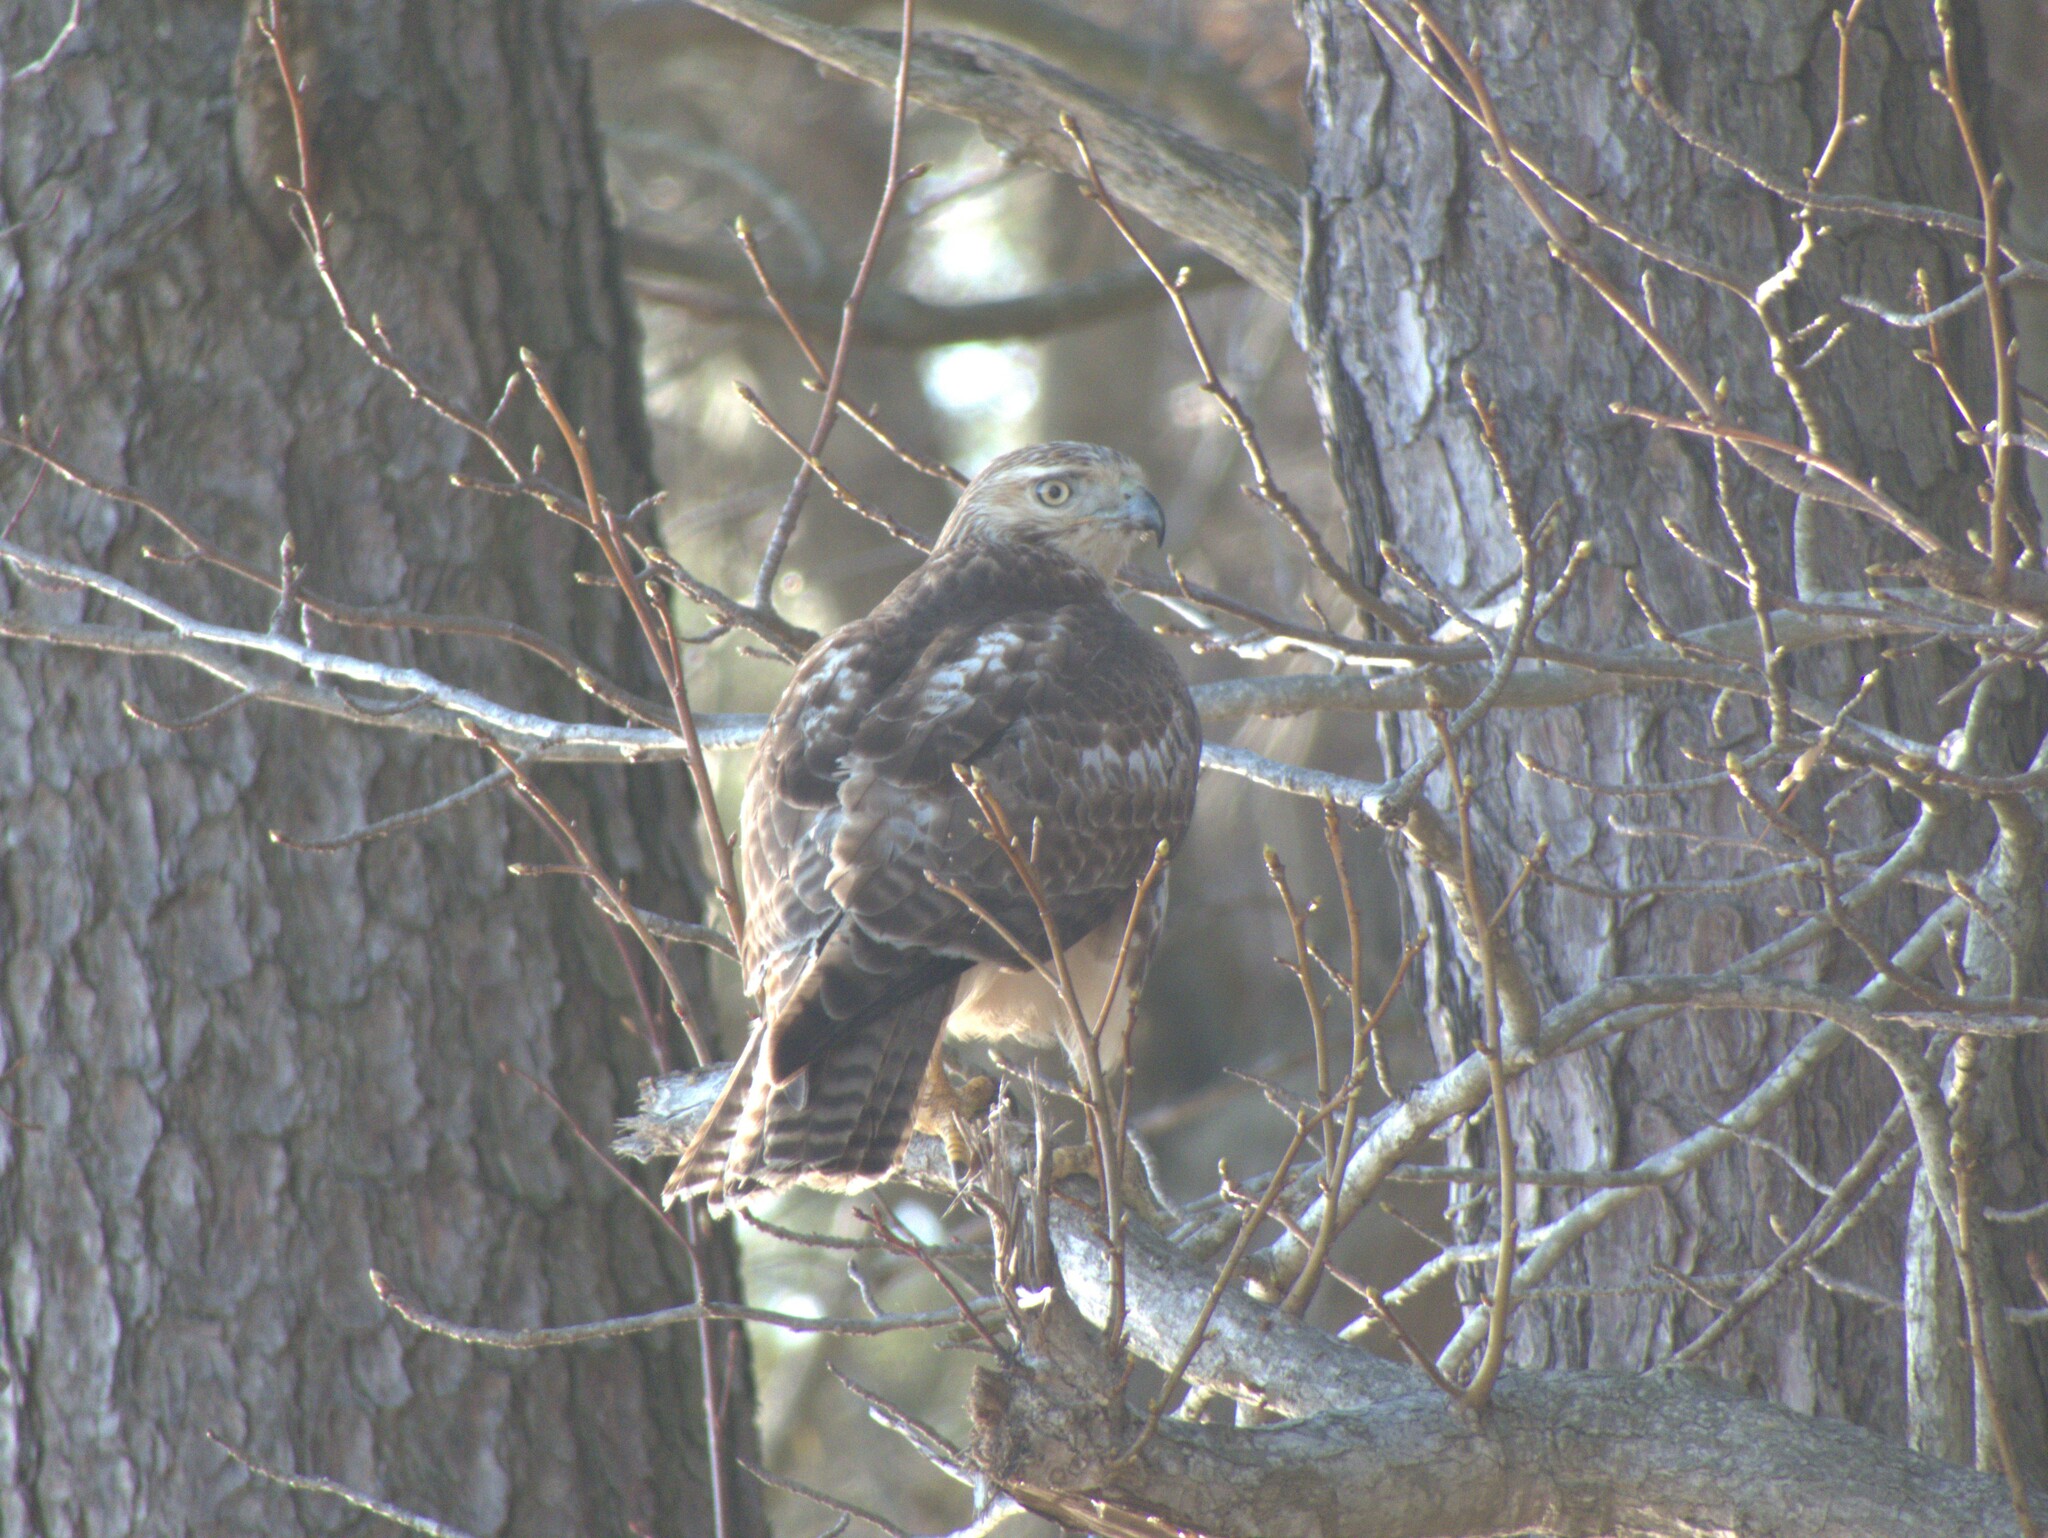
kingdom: Animalia
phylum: Chordata
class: Aves
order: Accipitriformes
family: Accipitridae
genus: Buteo
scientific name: Buteo jamaicensis
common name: Red-tailed hawk
